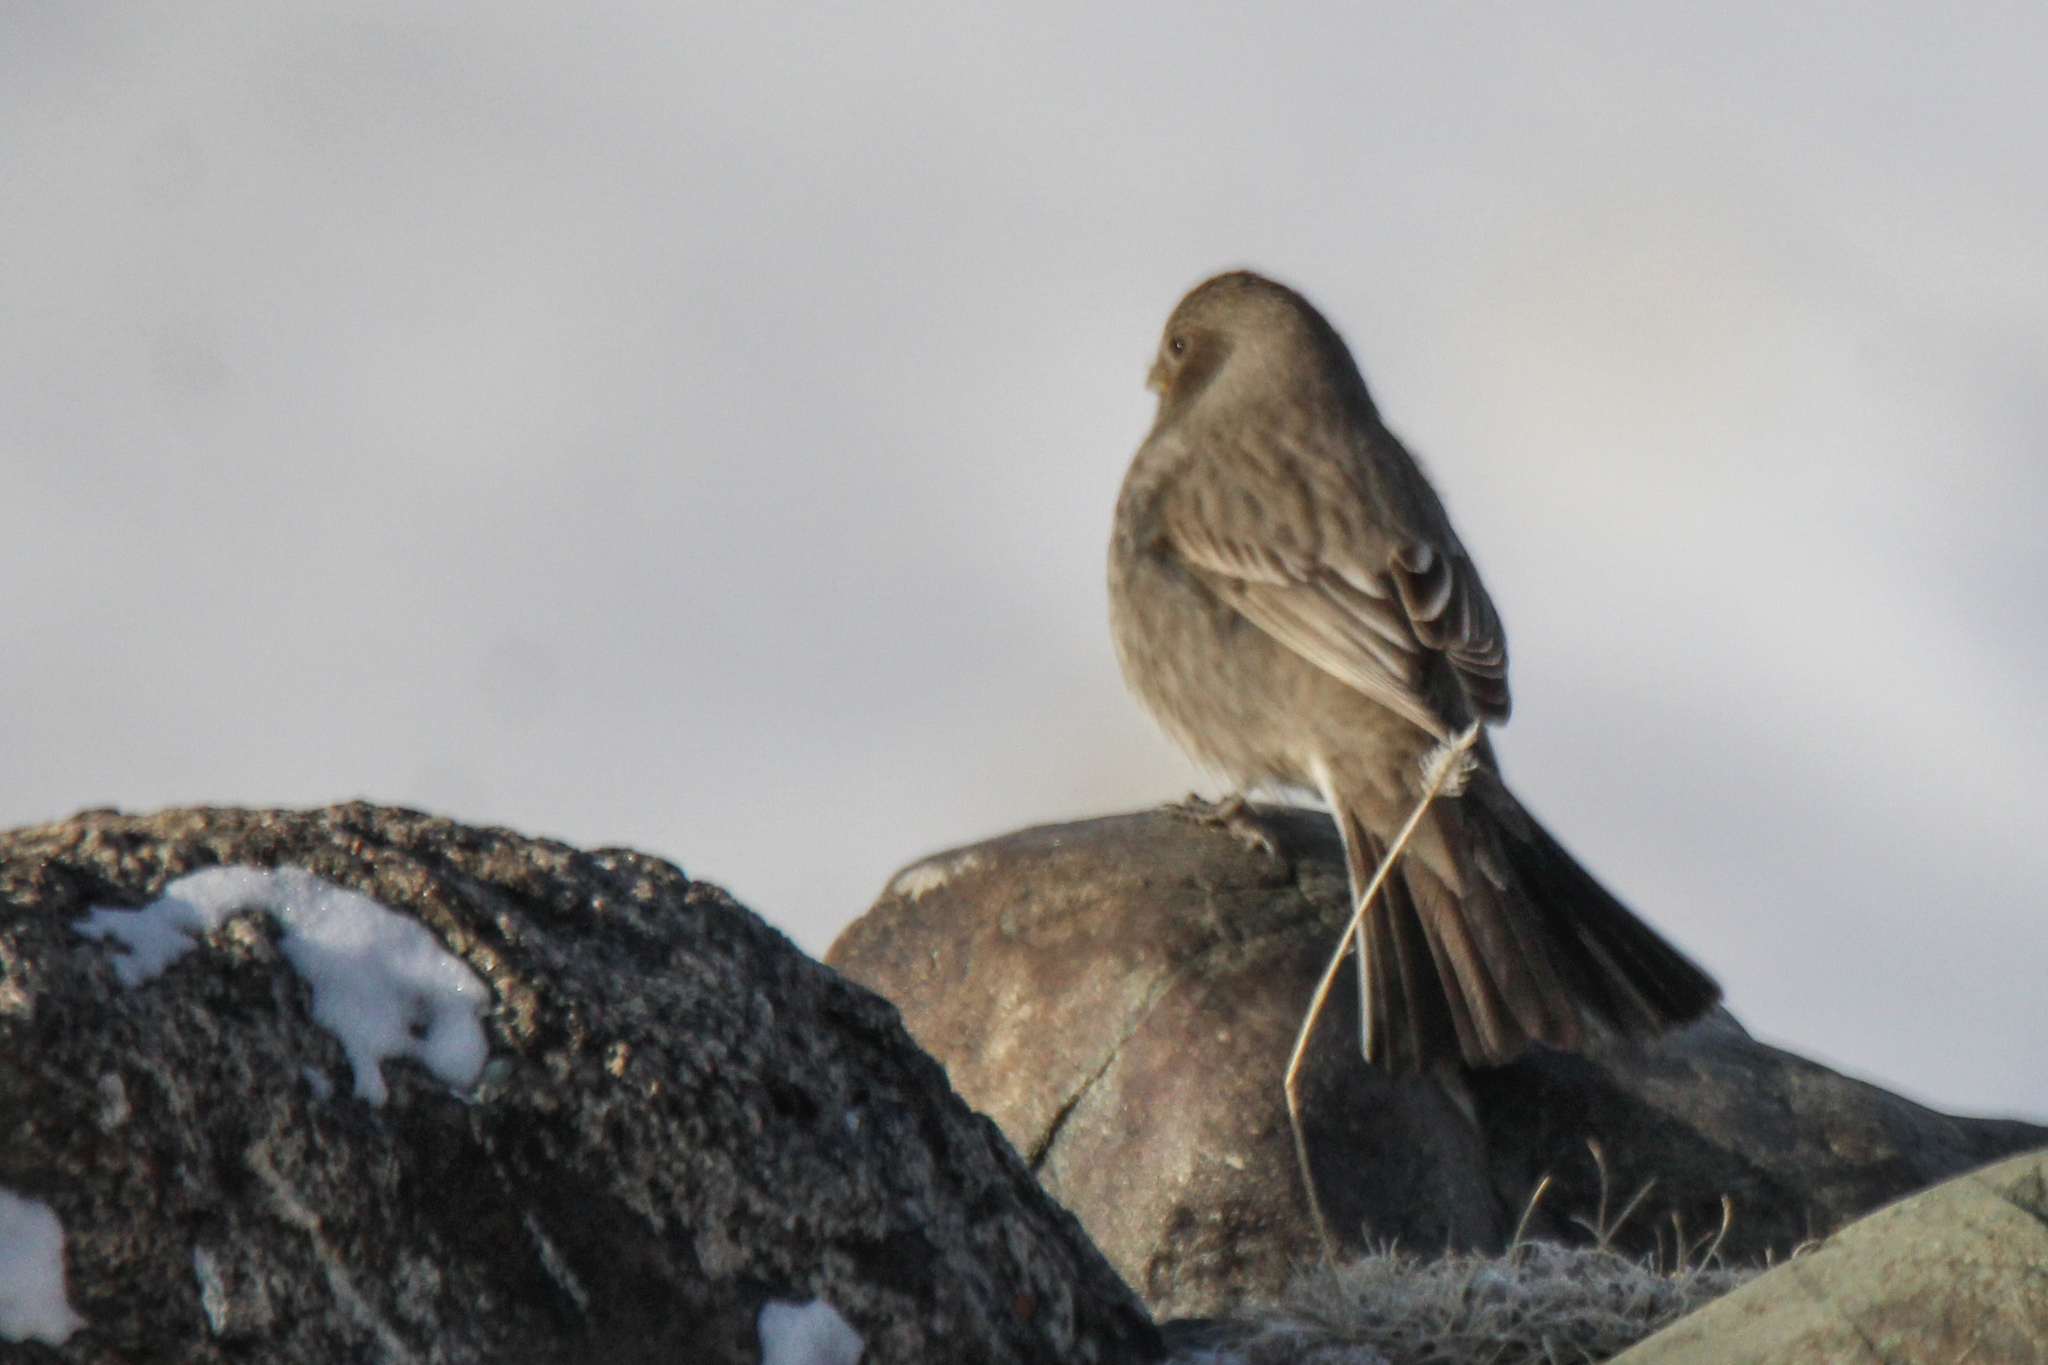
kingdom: Animalia
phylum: Chordata
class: Aves
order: Passeriformes
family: Fringillidae
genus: Carpodacus
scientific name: Carpodacus rubicilla
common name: Great rosefinch
